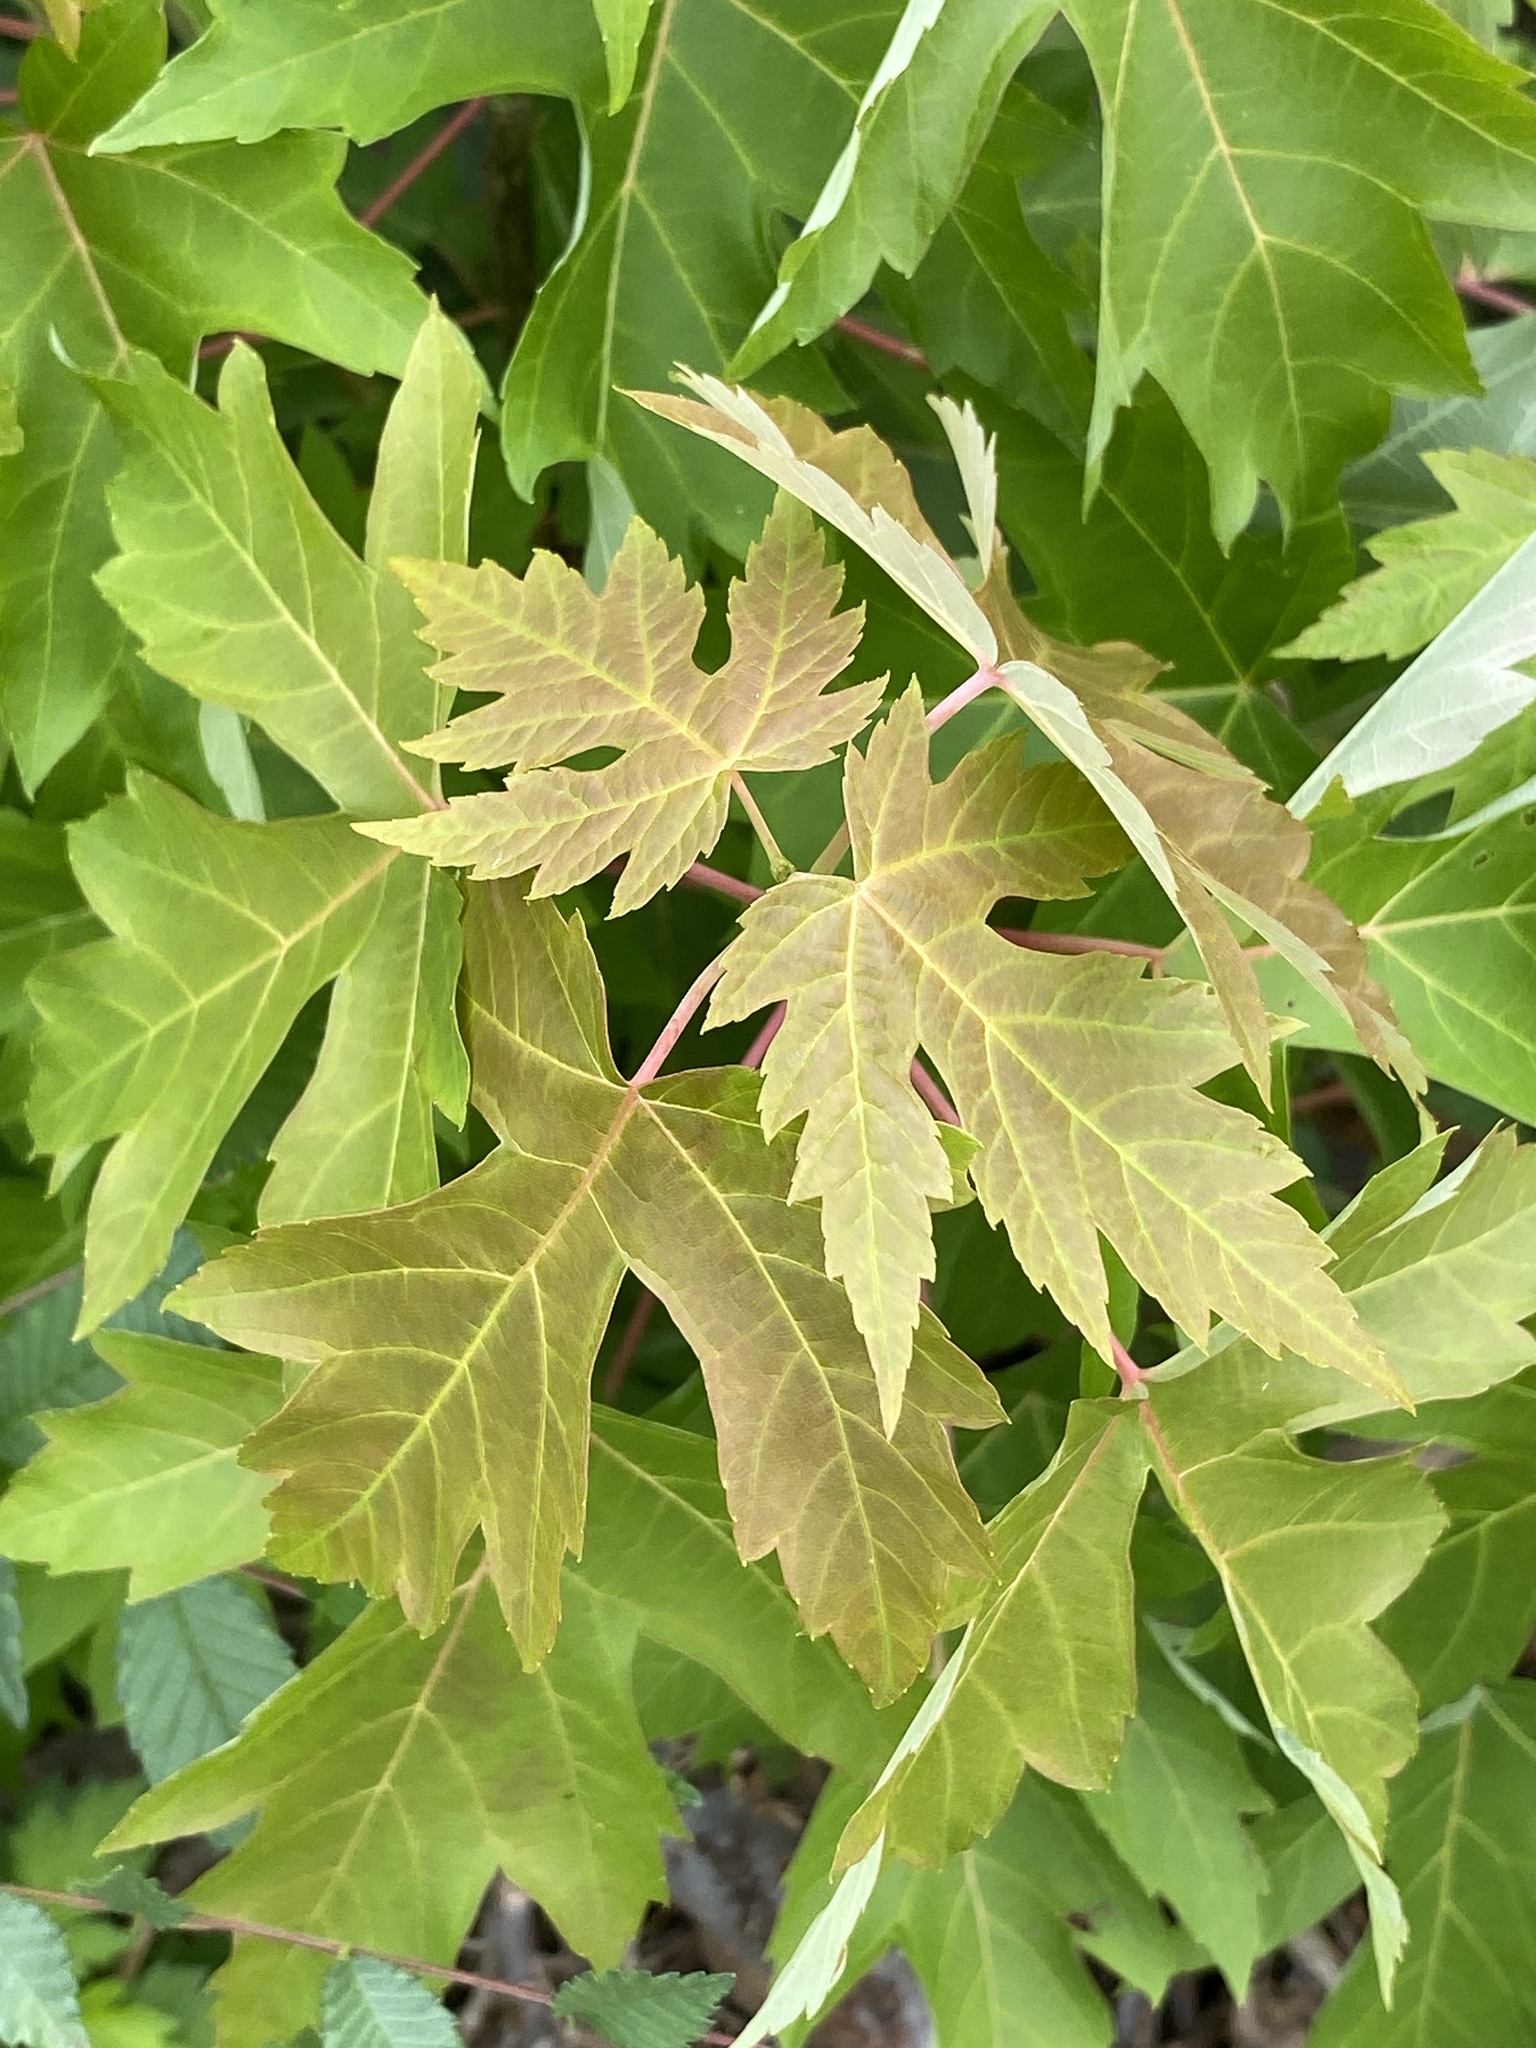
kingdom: Plantae
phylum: Tracheophyta
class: Magnoliopsida
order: Sapindales
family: Sapindaceae
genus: Acer
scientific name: Acer saccharinum
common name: Silver maple
